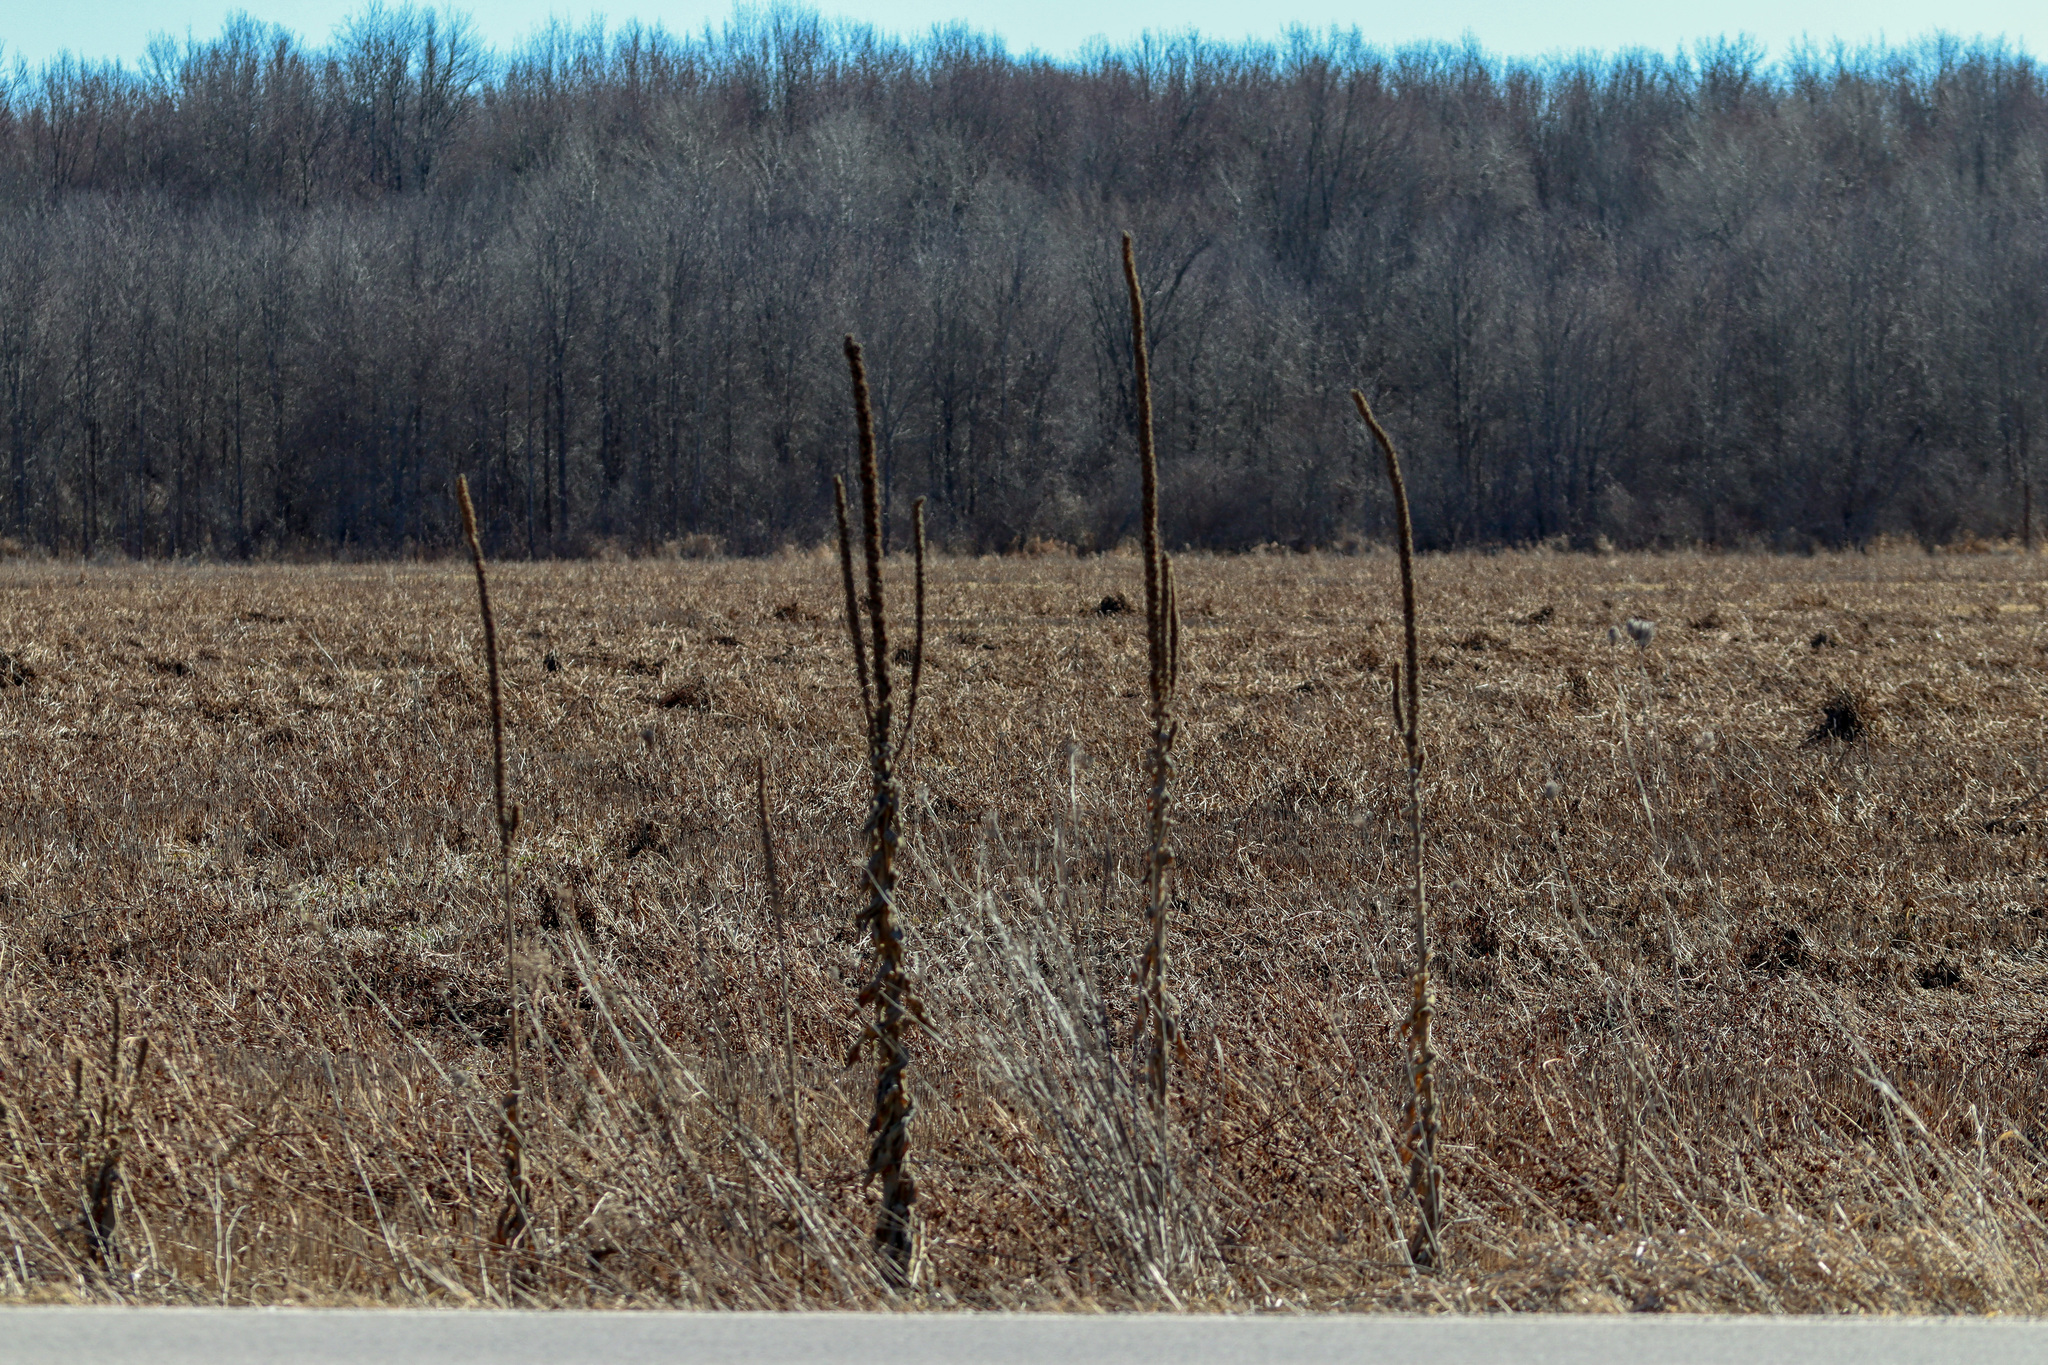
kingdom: Plantae
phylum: Tracheophyta
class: Magnoliopsida
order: Lamiales
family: Scrophulariaceae
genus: Verbascum
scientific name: Verbascum thapsus
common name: Common mullein
